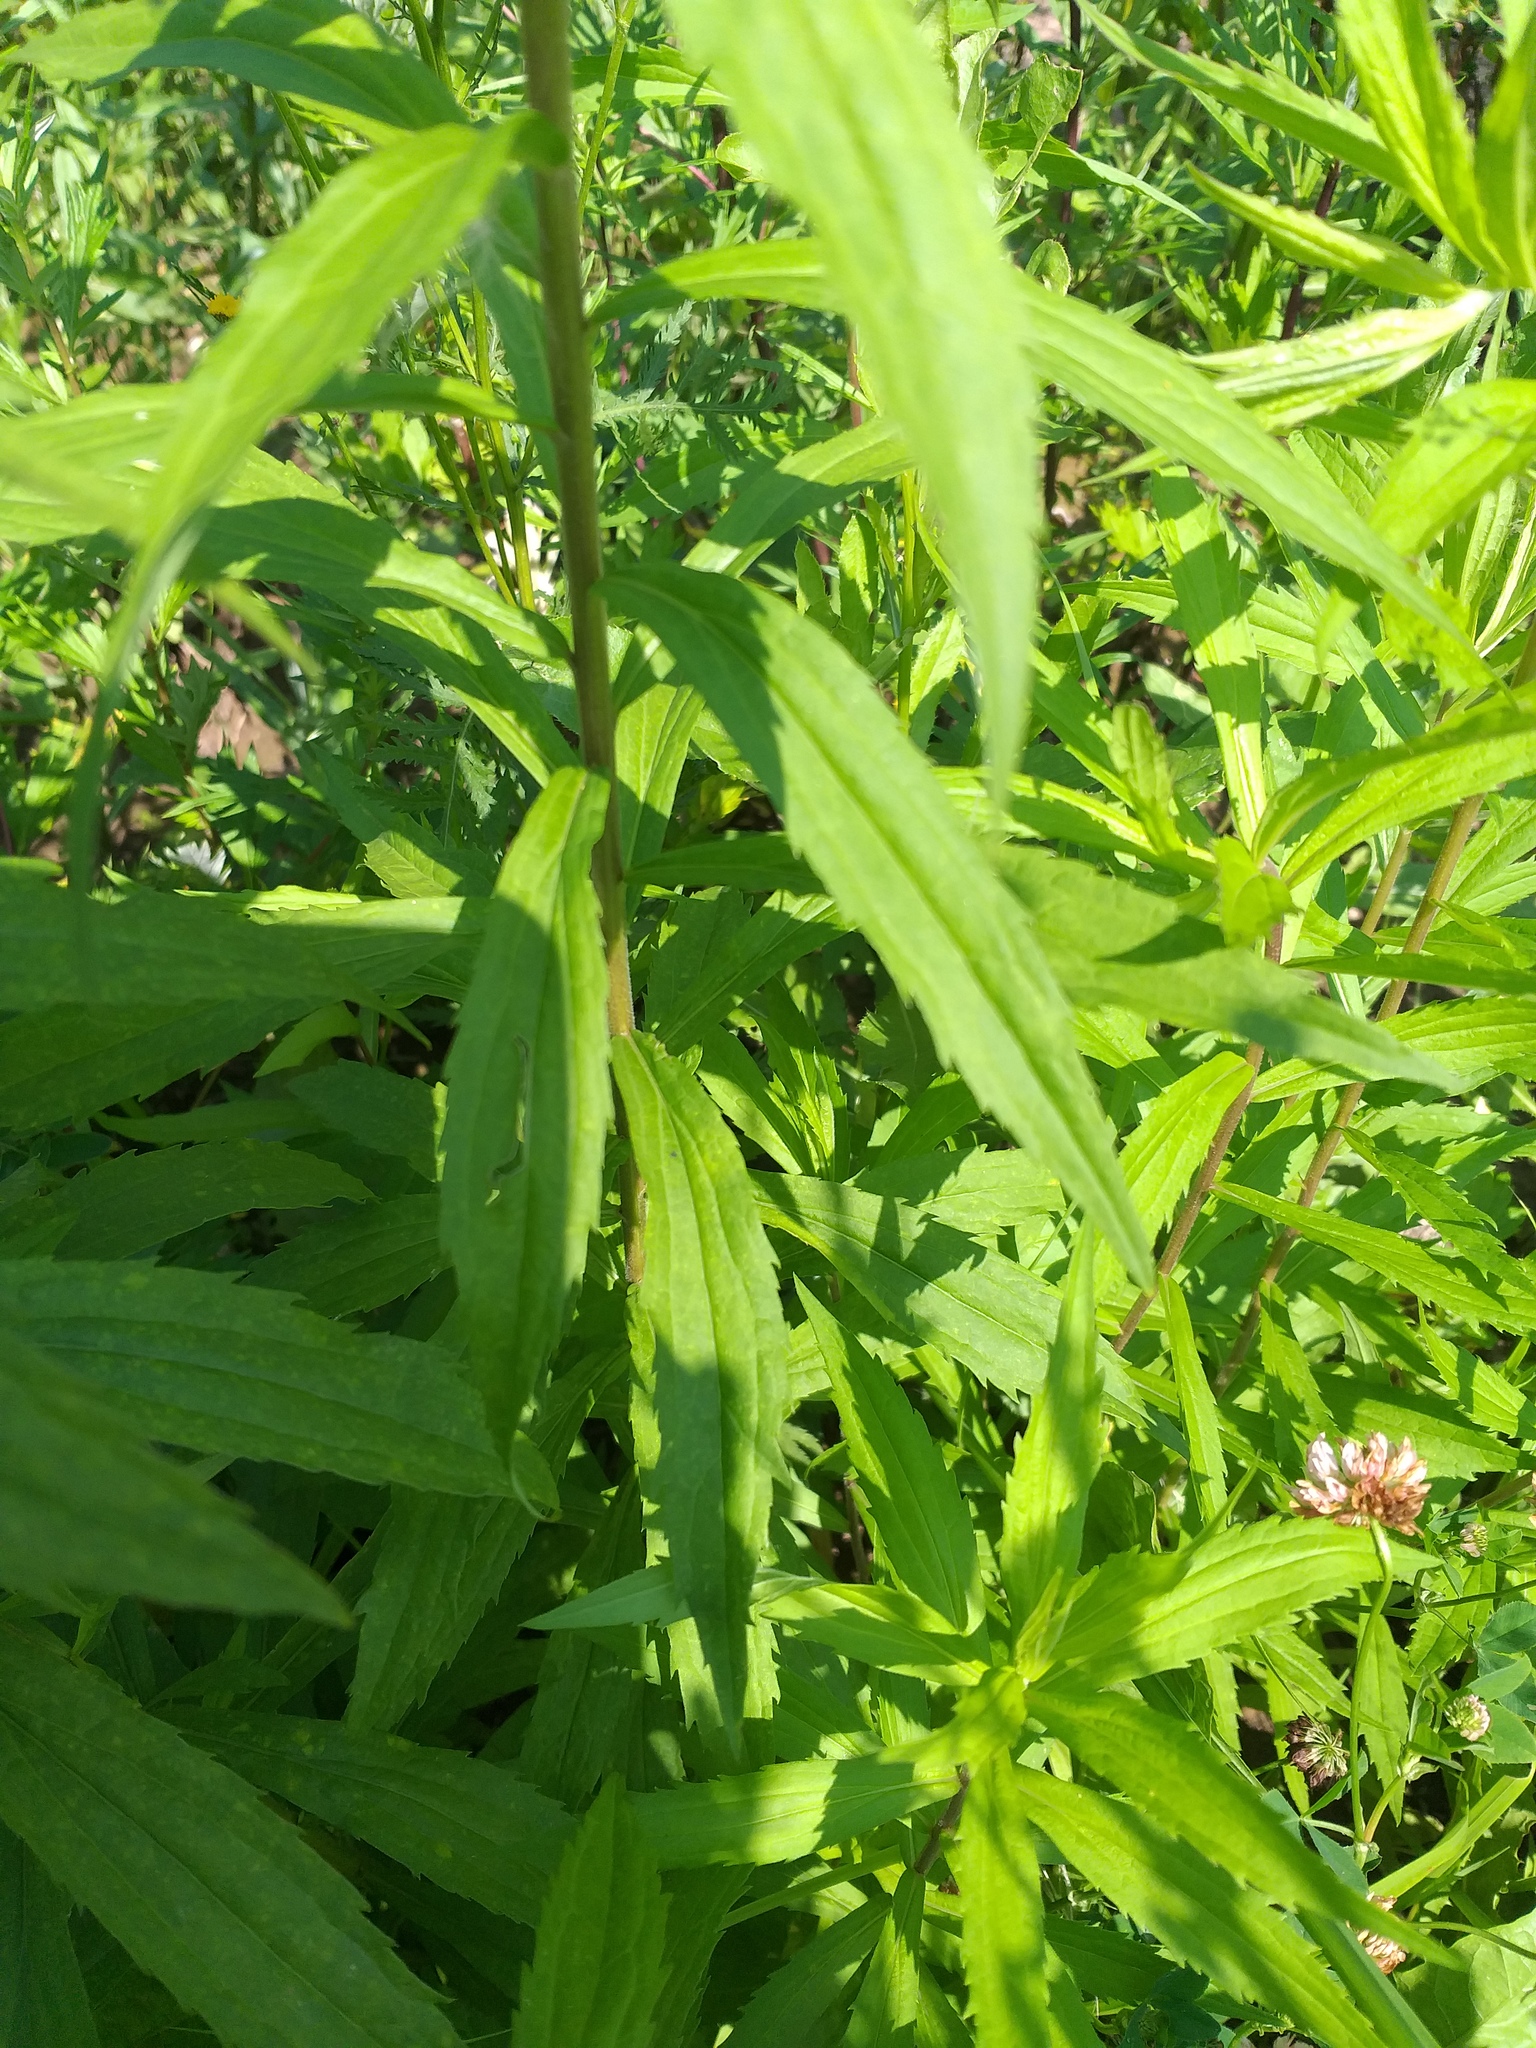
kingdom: Plantae
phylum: Tracheophyta
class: Magnoliopsida
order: Asterales
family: Asteraceae
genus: Solidago
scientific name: Solidago canadensis
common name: Canada goldenrod
